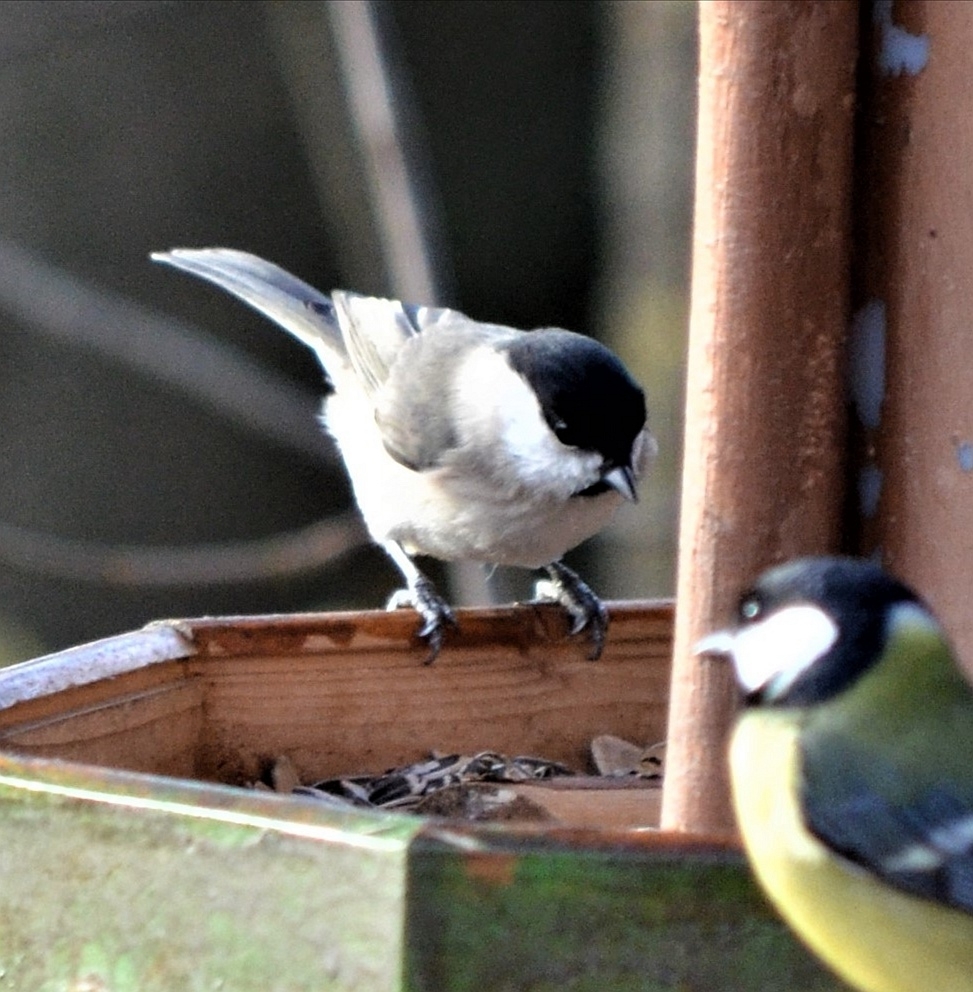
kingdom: Animalia
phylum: Chordata
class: Aves
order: Passeriformes
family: Paridae
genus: Poecile
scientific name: Poecile palustris
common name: Marsh tit
